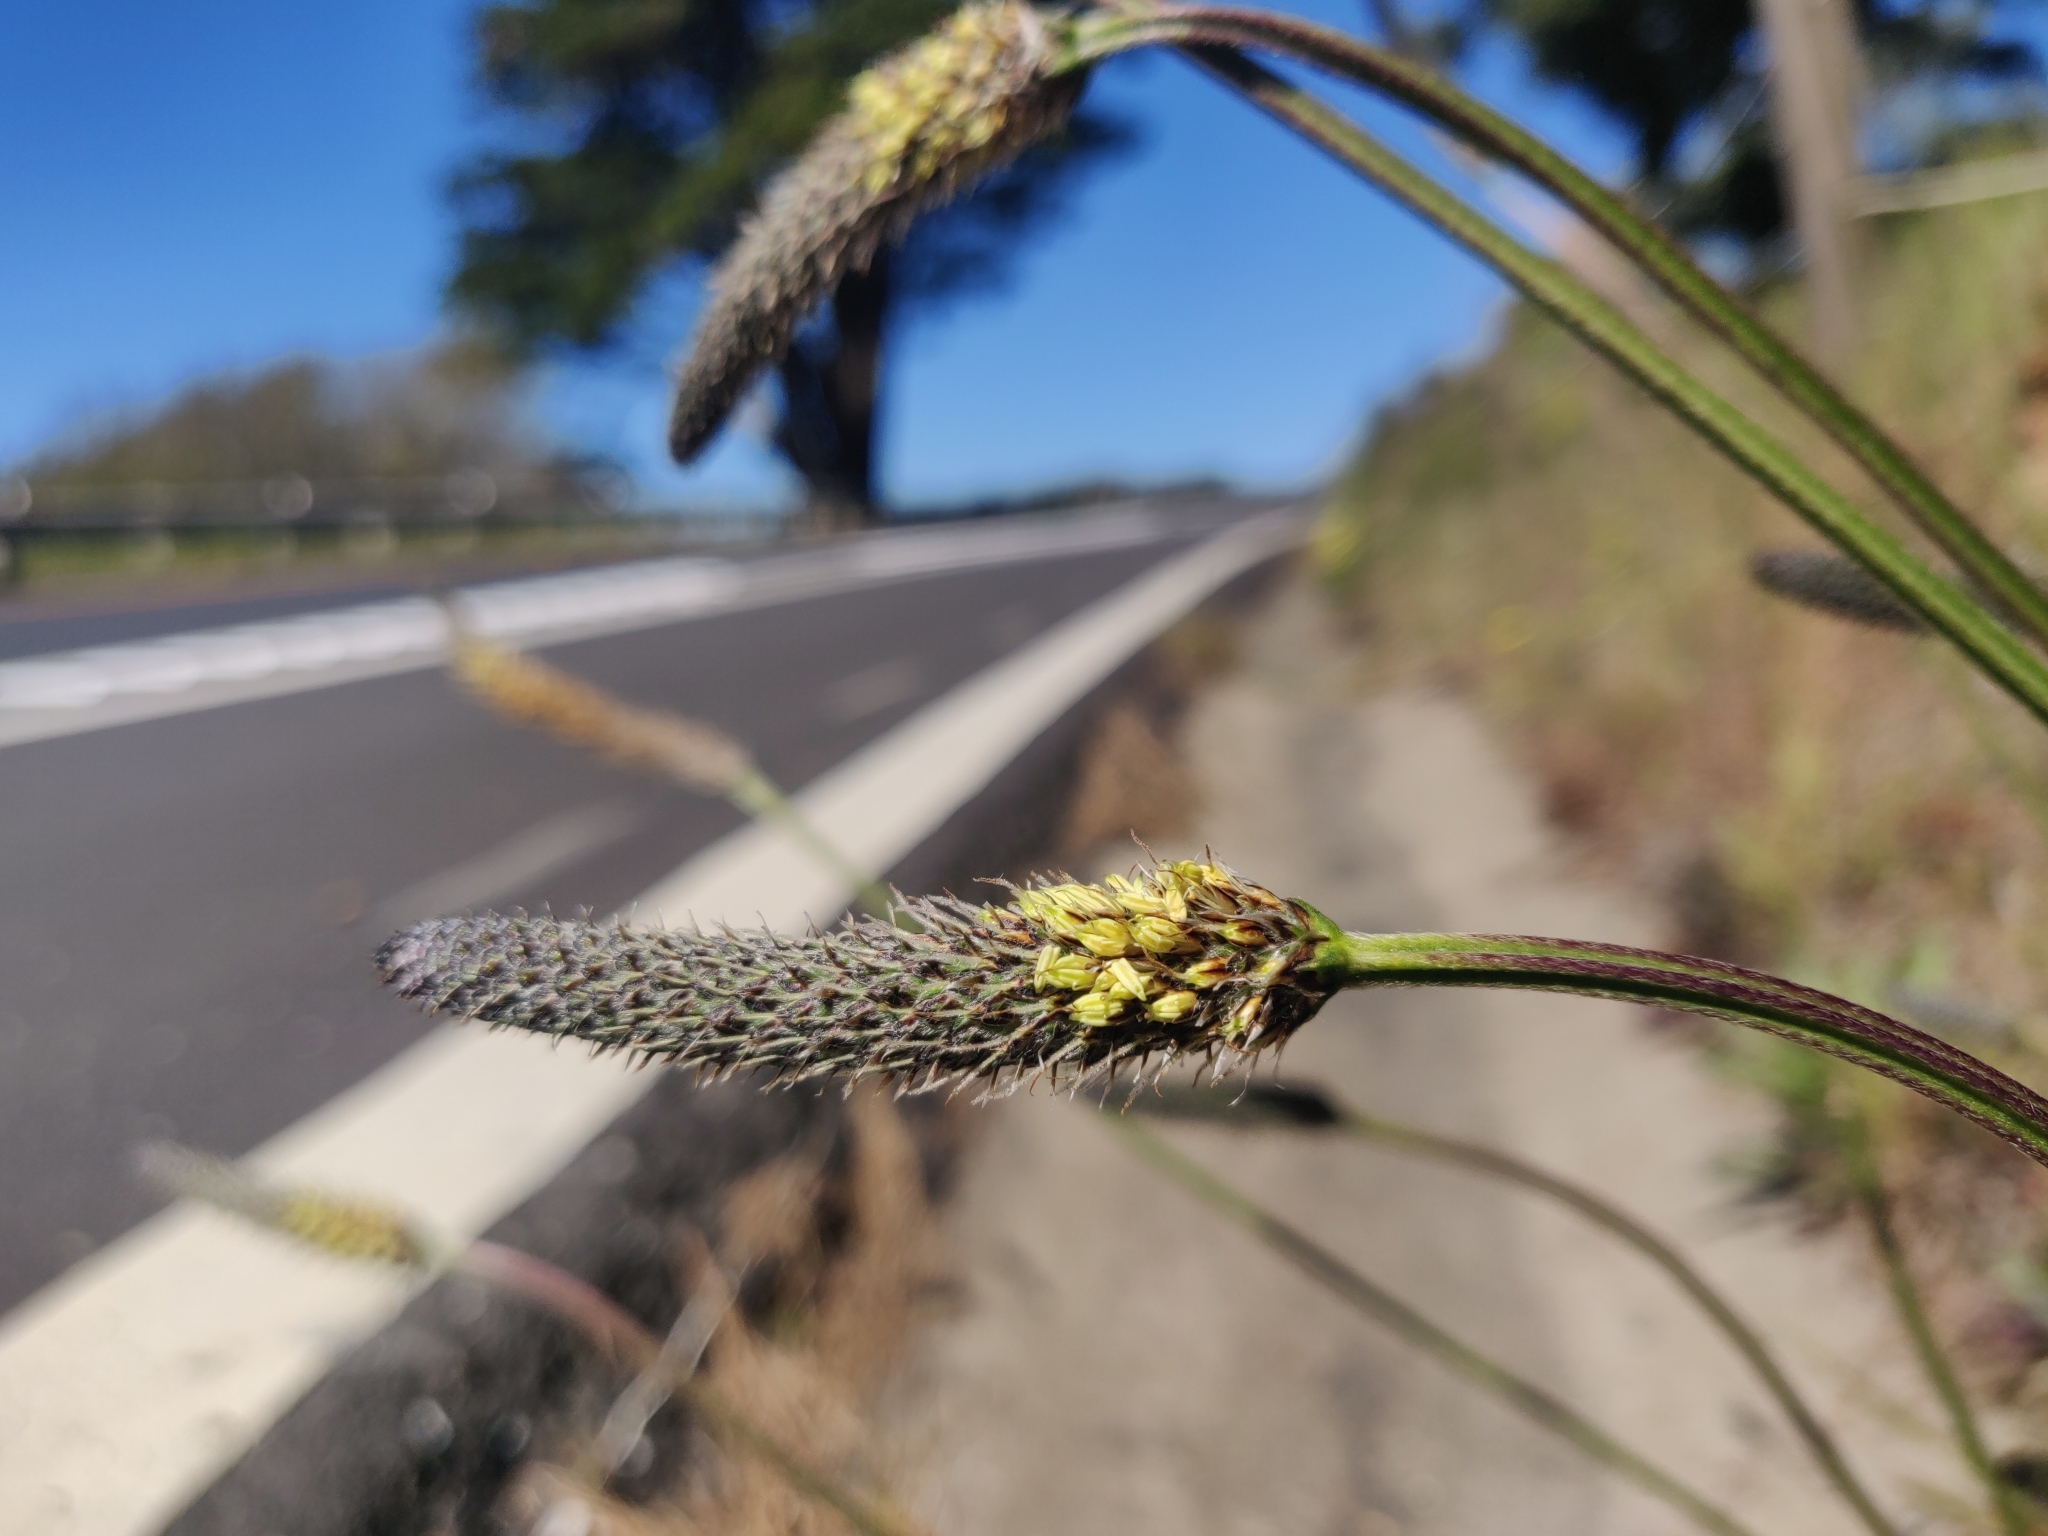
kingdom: Plantae
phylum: Tracheophyta
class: Magnoliopsida
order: Lamiales
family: Plantaginaceae
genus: Plantago
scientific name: Plantago lanceolata
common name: Ribwort plantain
